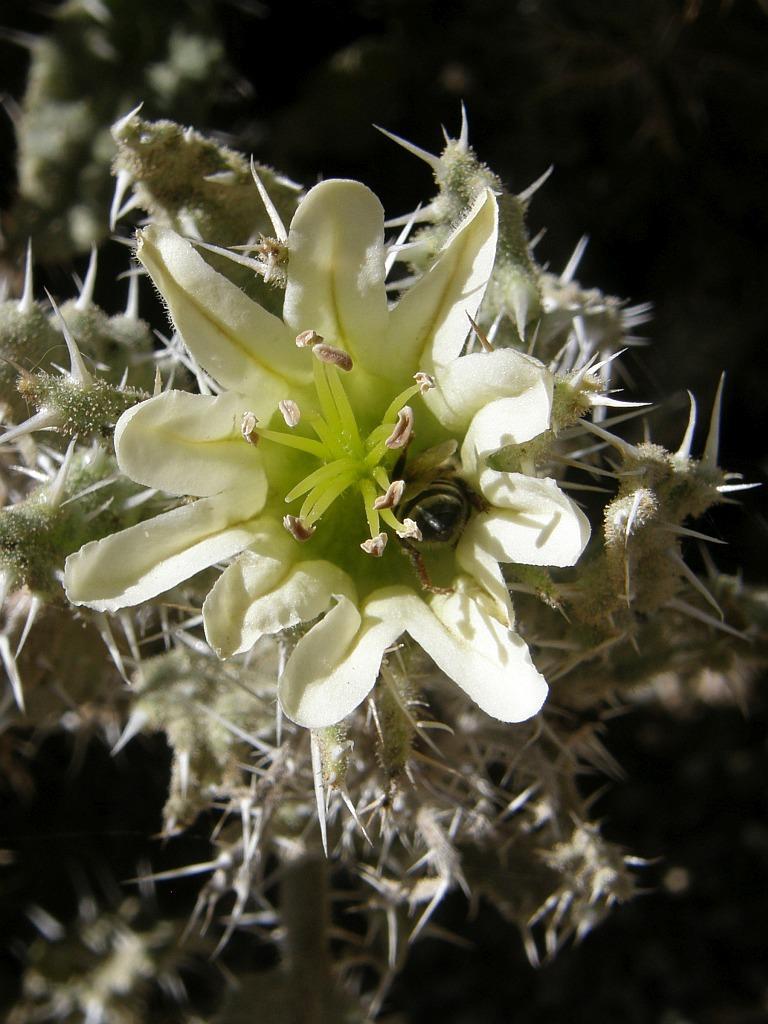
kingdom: Plantae
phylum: Tracheophyta
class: Magnoliopsida
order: Boraginales
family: Boraginaceae
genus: Codon
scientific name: Codon royenii
